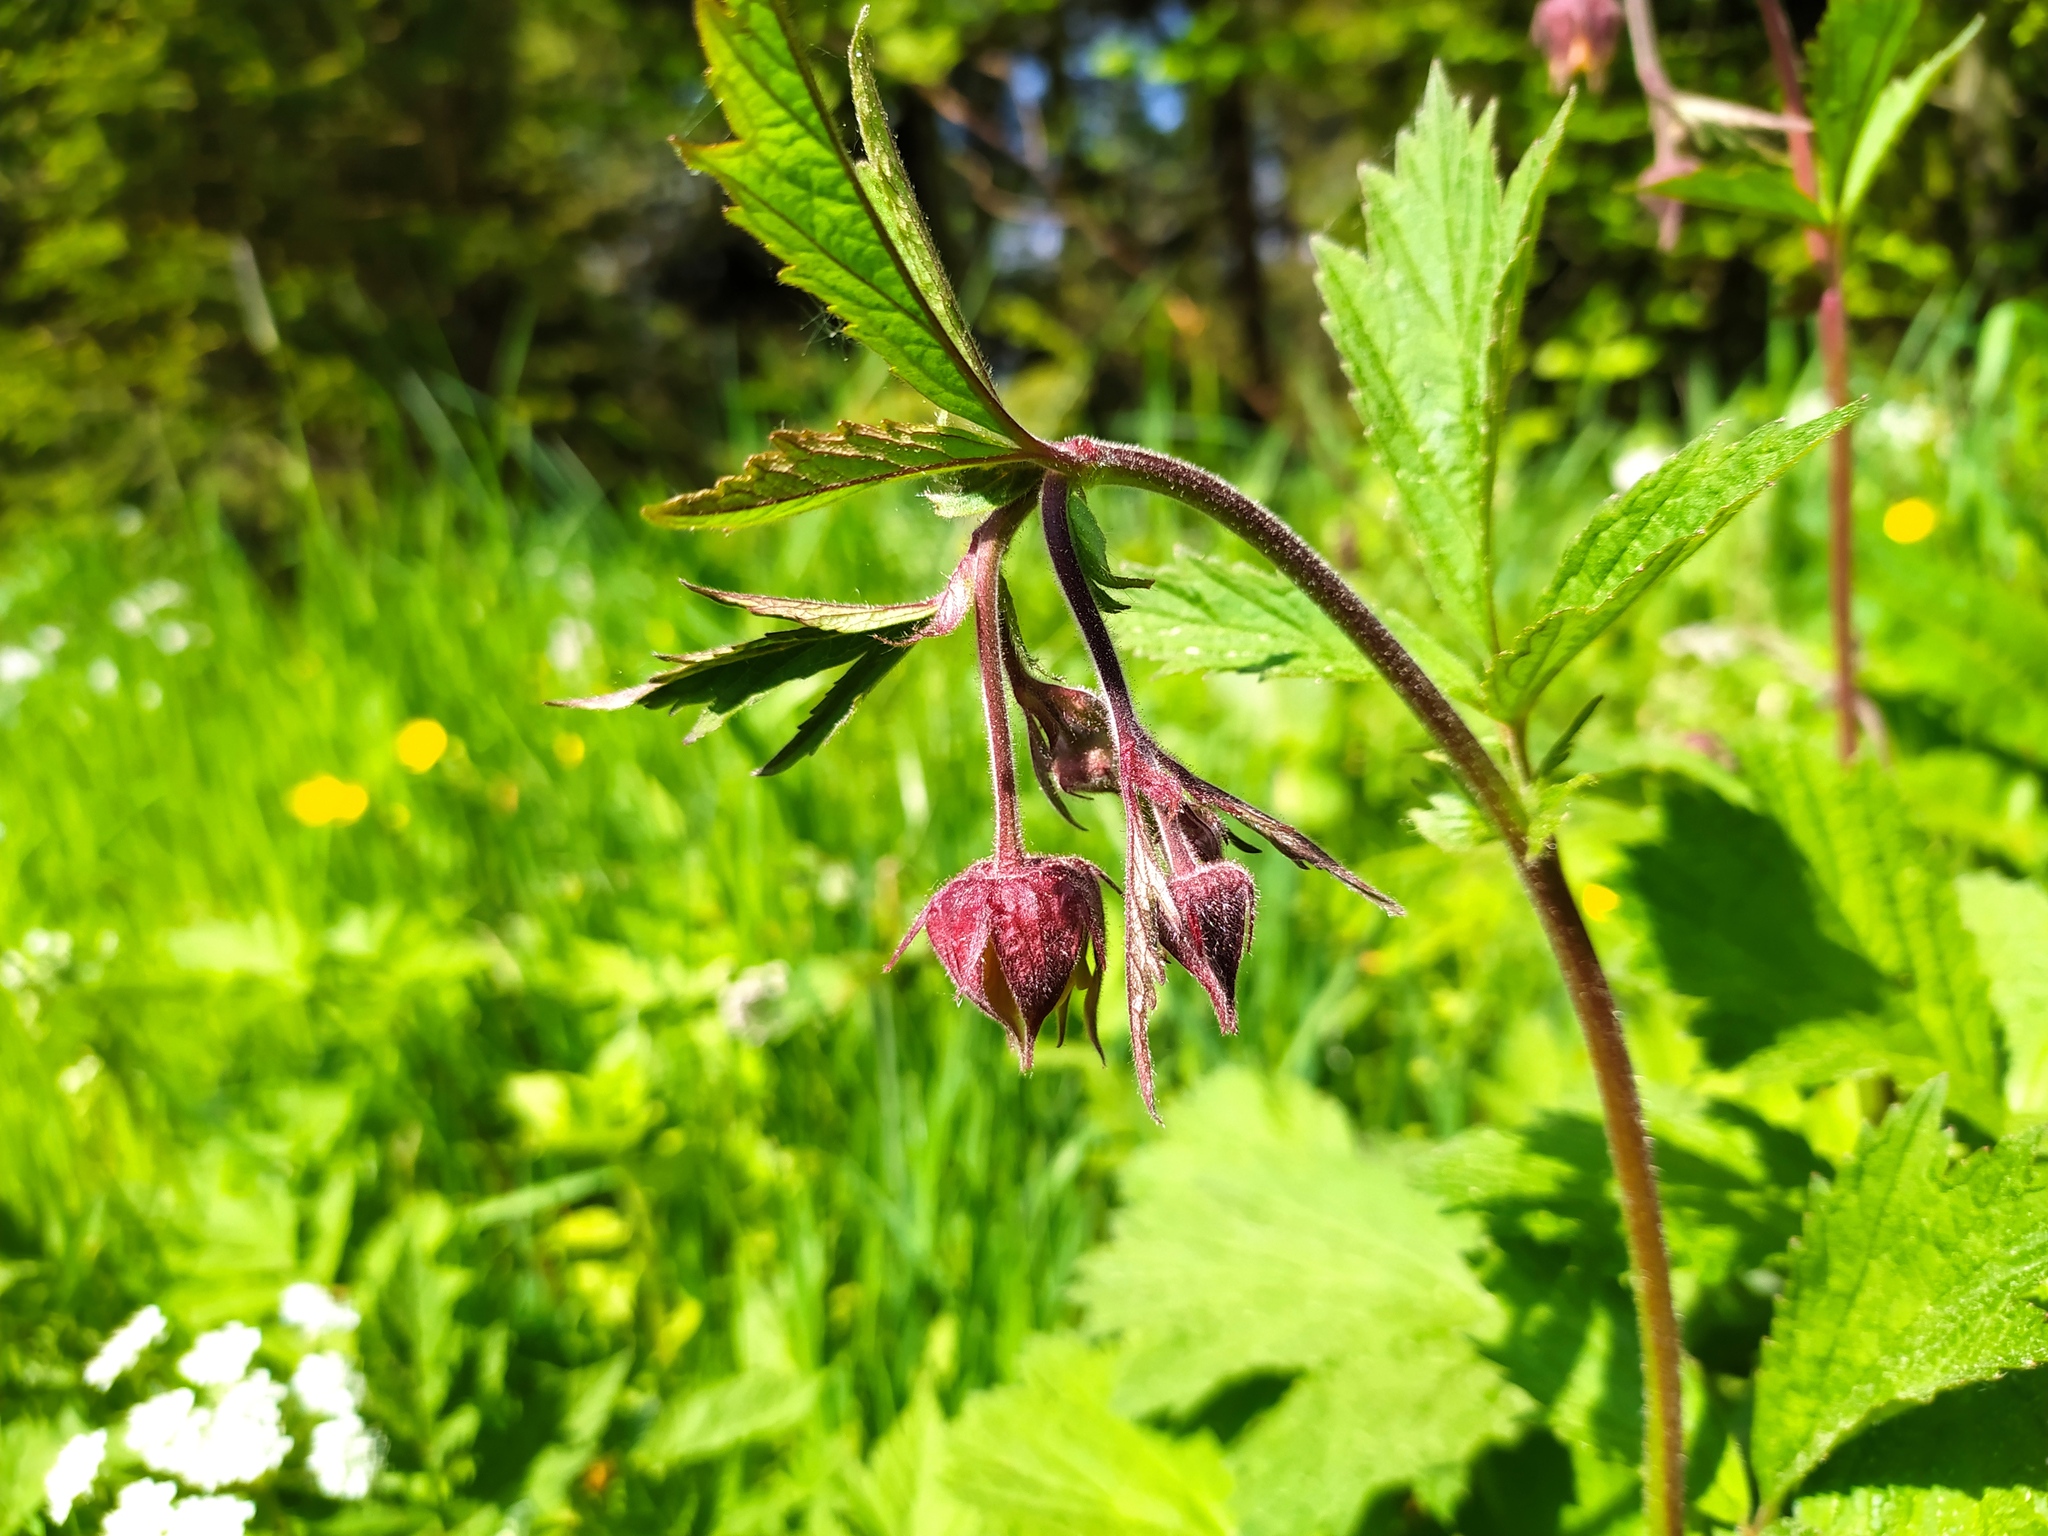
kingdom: Plantae
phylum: Tracheophyta
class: Magnoliopsida
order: Rosales
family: Rosaceae
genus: Geum
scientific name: Geum rivale
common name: Water avens
